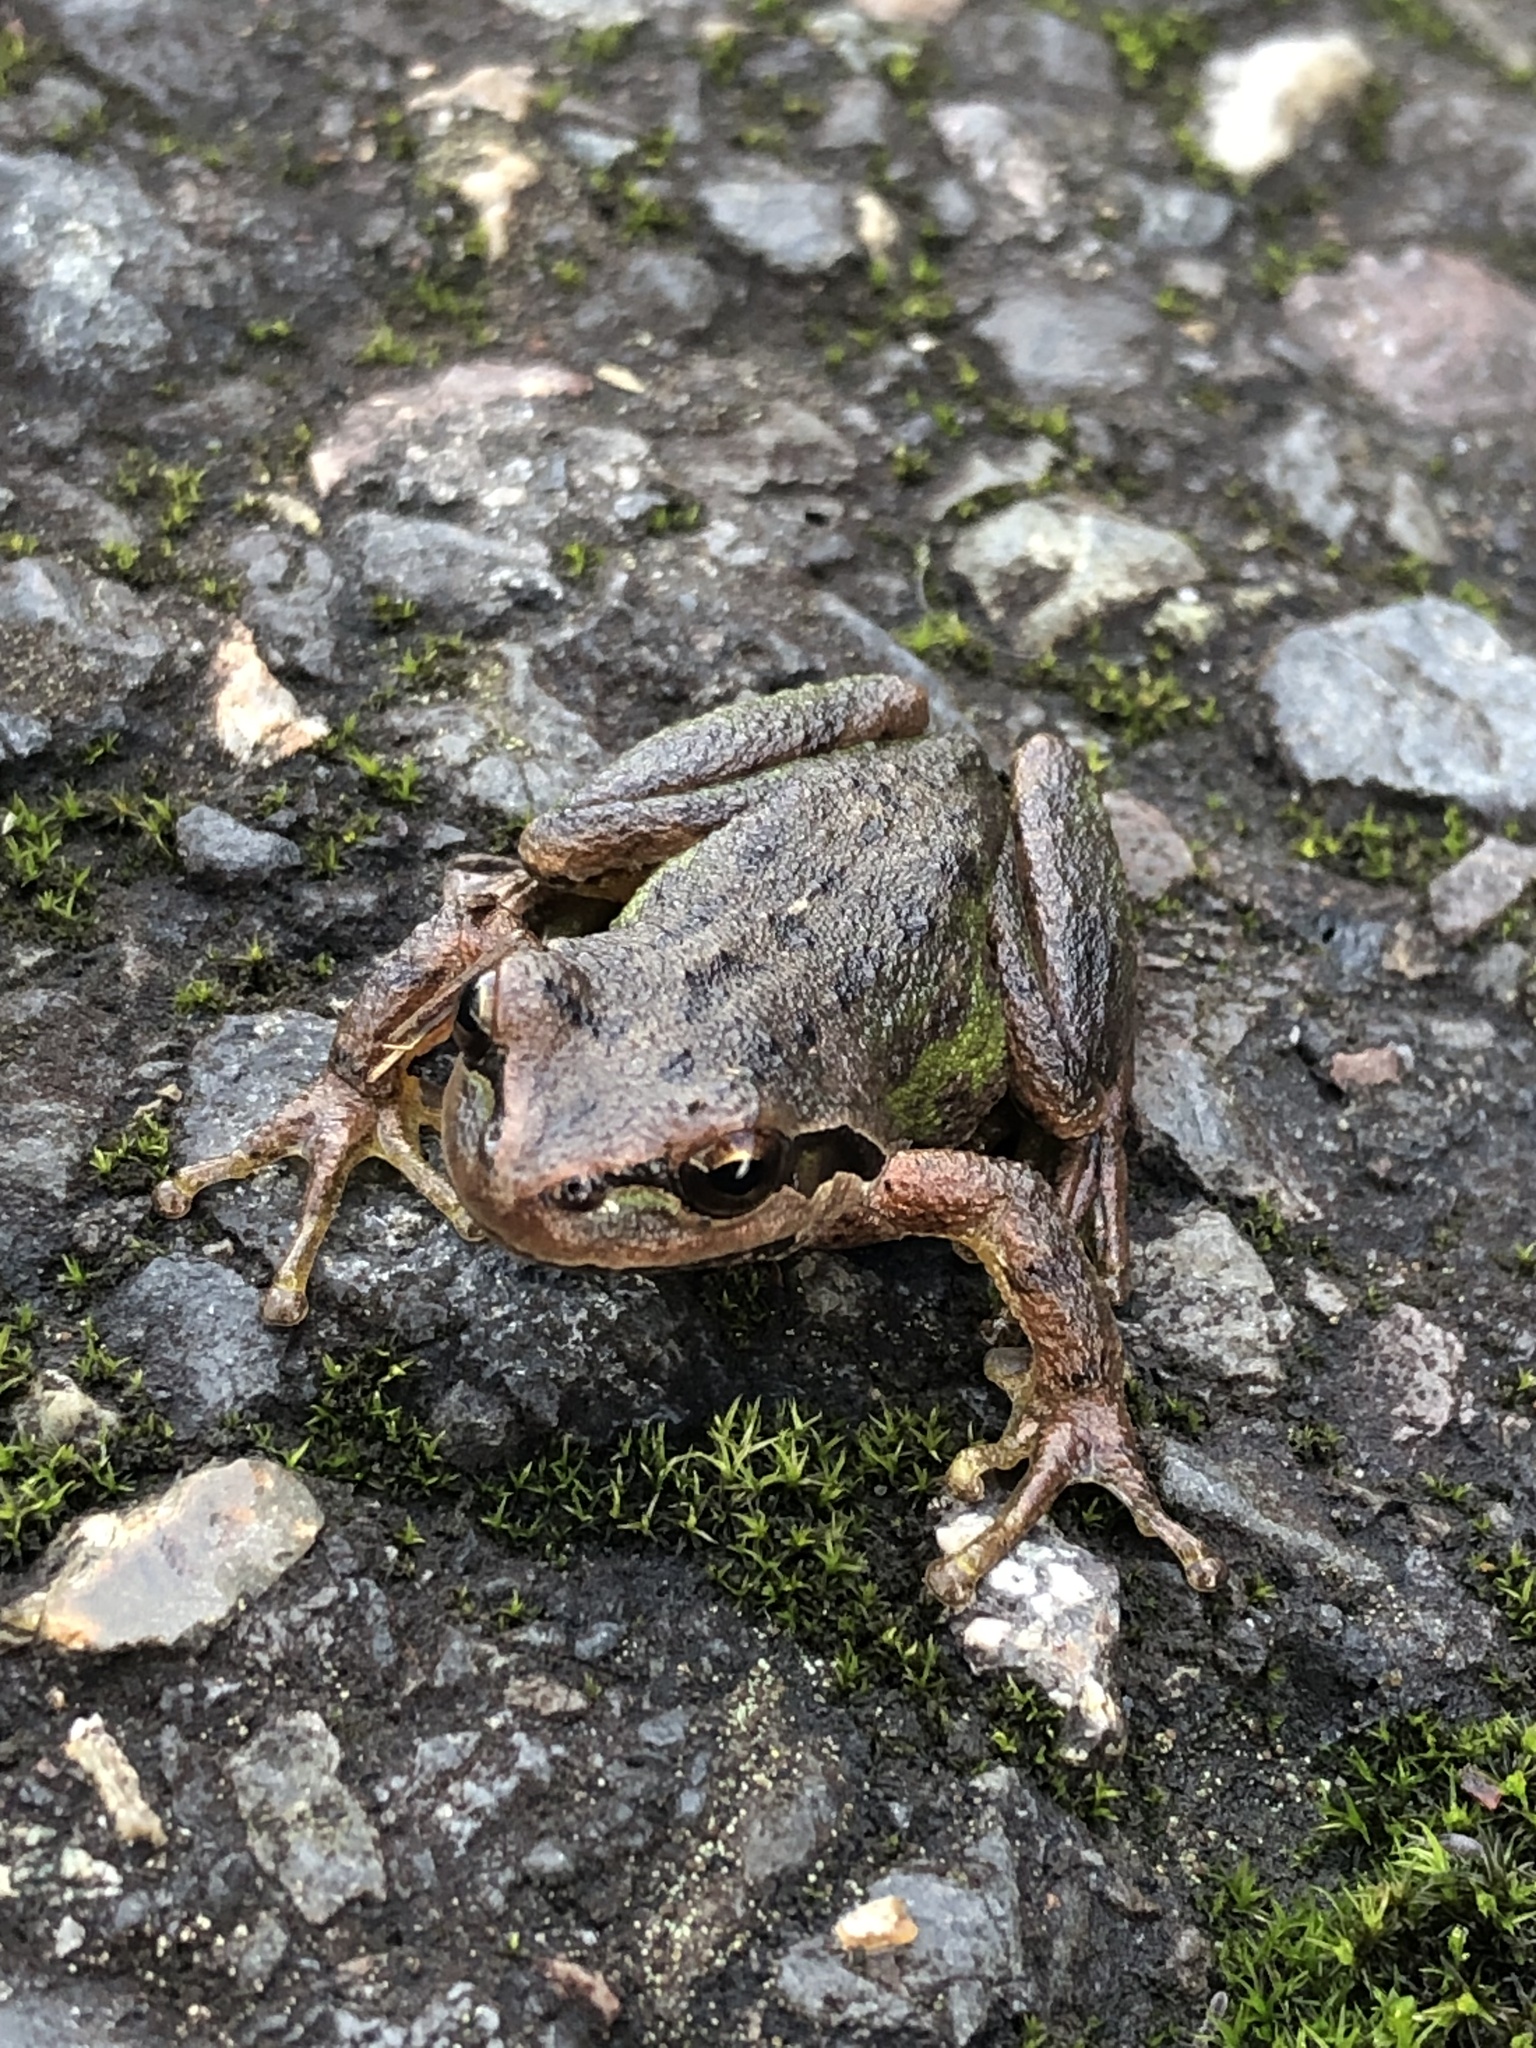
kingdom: Animalia
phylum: Chordata
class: Amphibia
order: Anura
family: Hylidae
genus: Pseudacris
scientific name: Pseudacris regilla
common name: Pacific chorus frog
